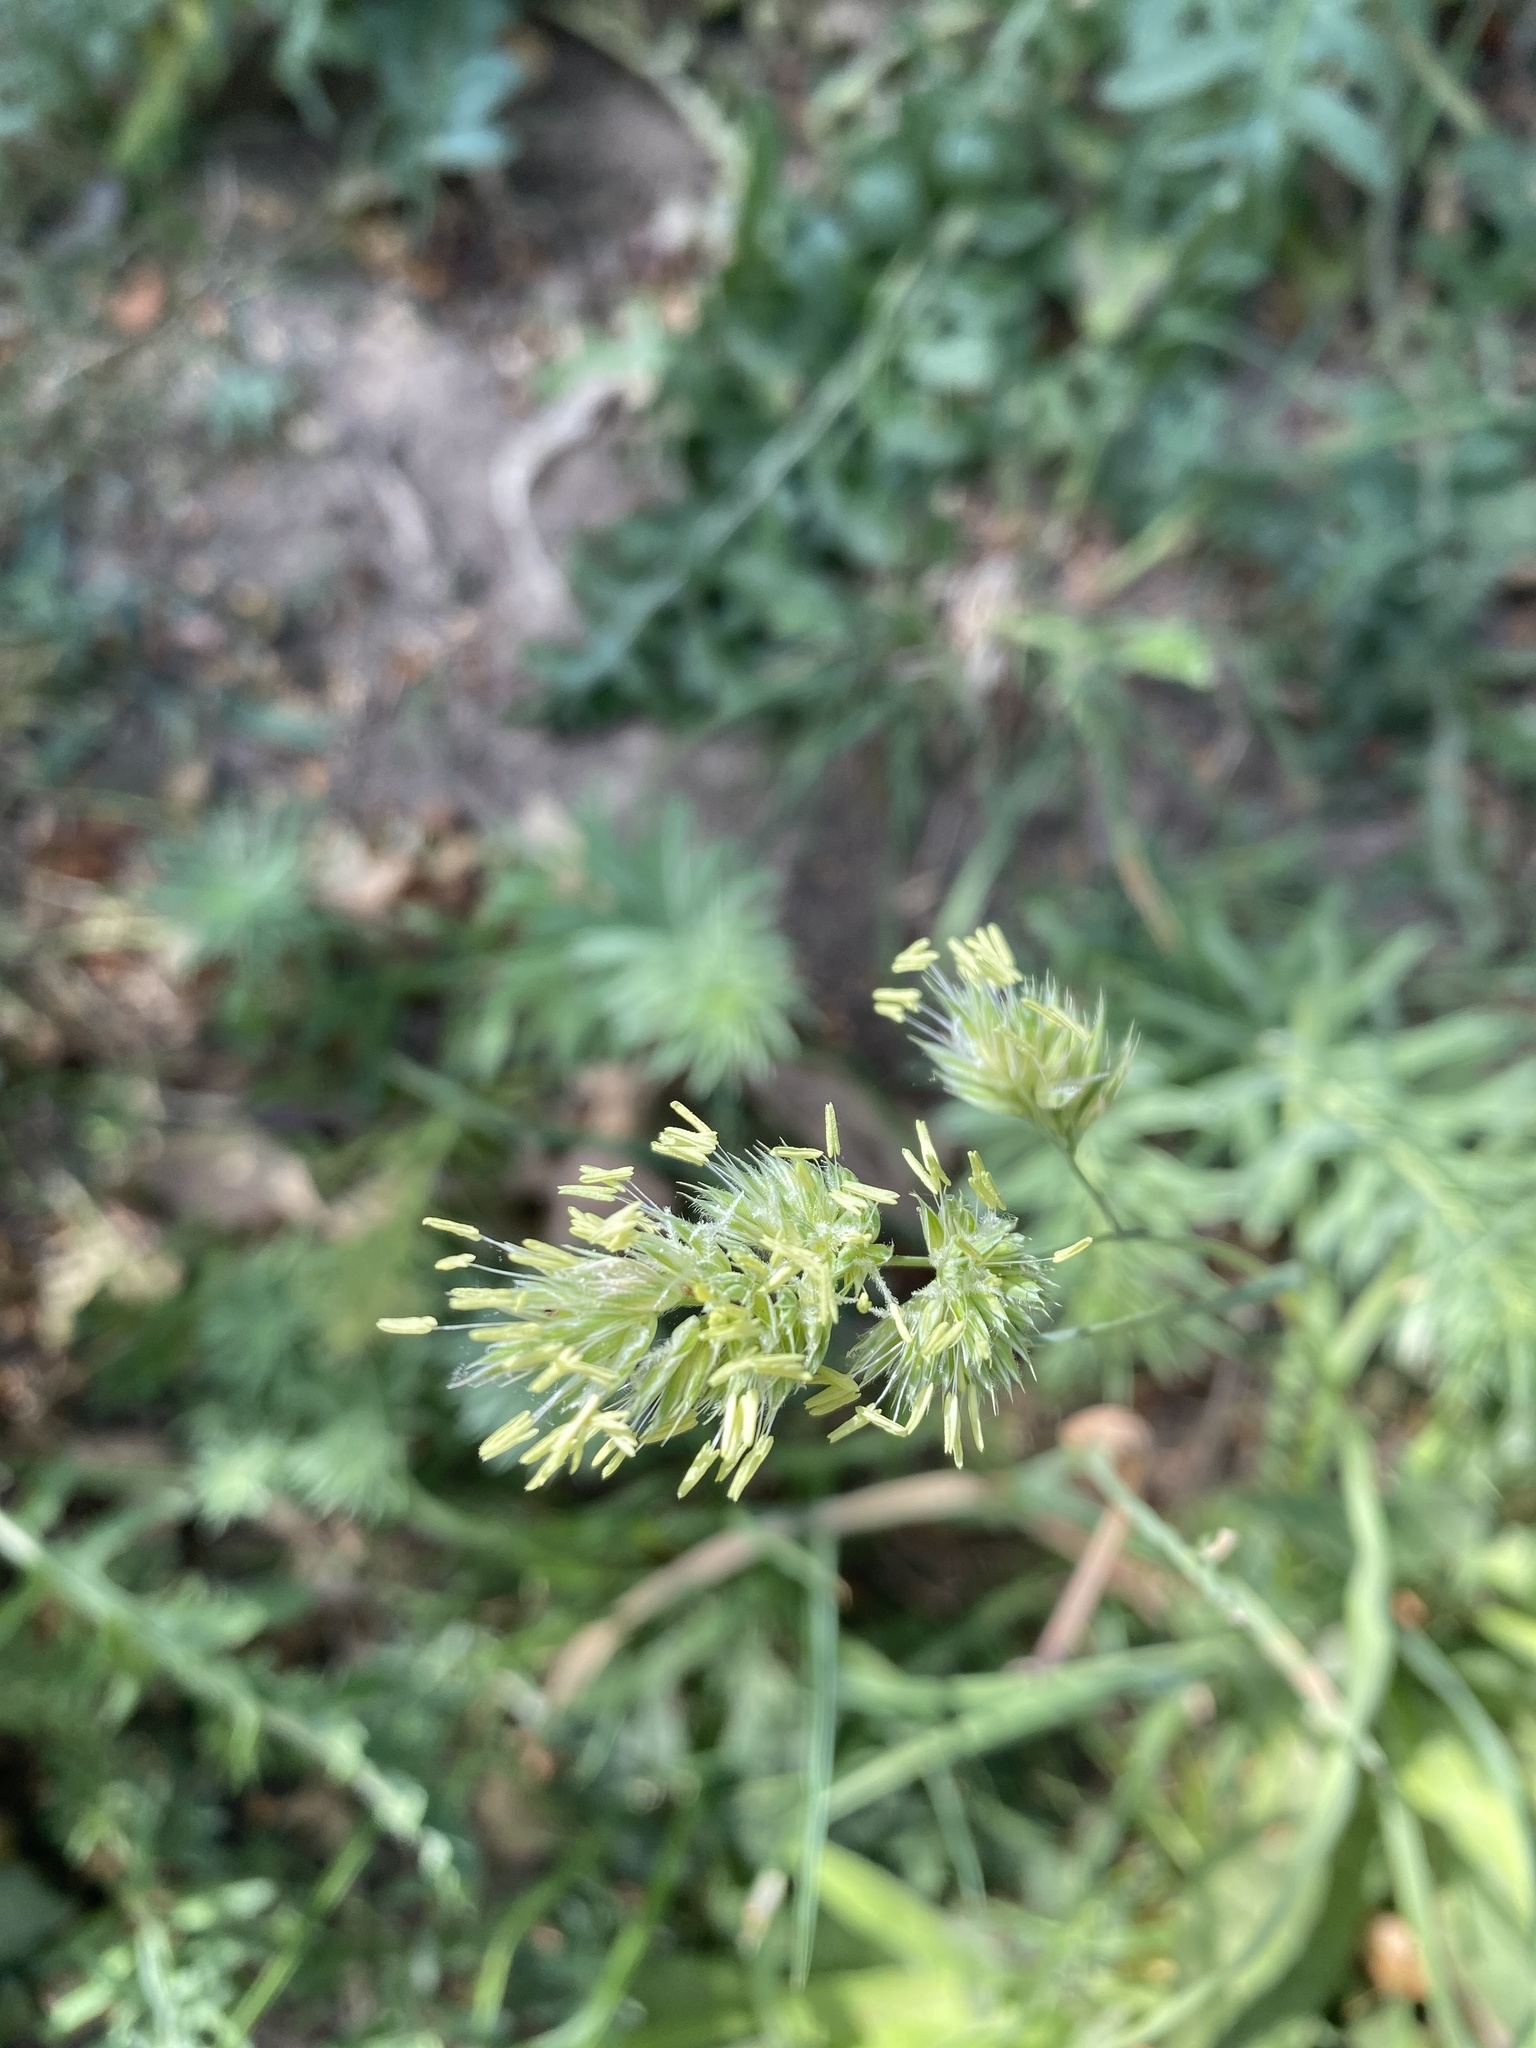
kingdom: Plantae
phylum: Tracheophyta
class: Liliopsida
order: Poales
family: Poaceae
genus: Dactylis
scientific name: Dactylis glomerata
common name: Orchardgrass
